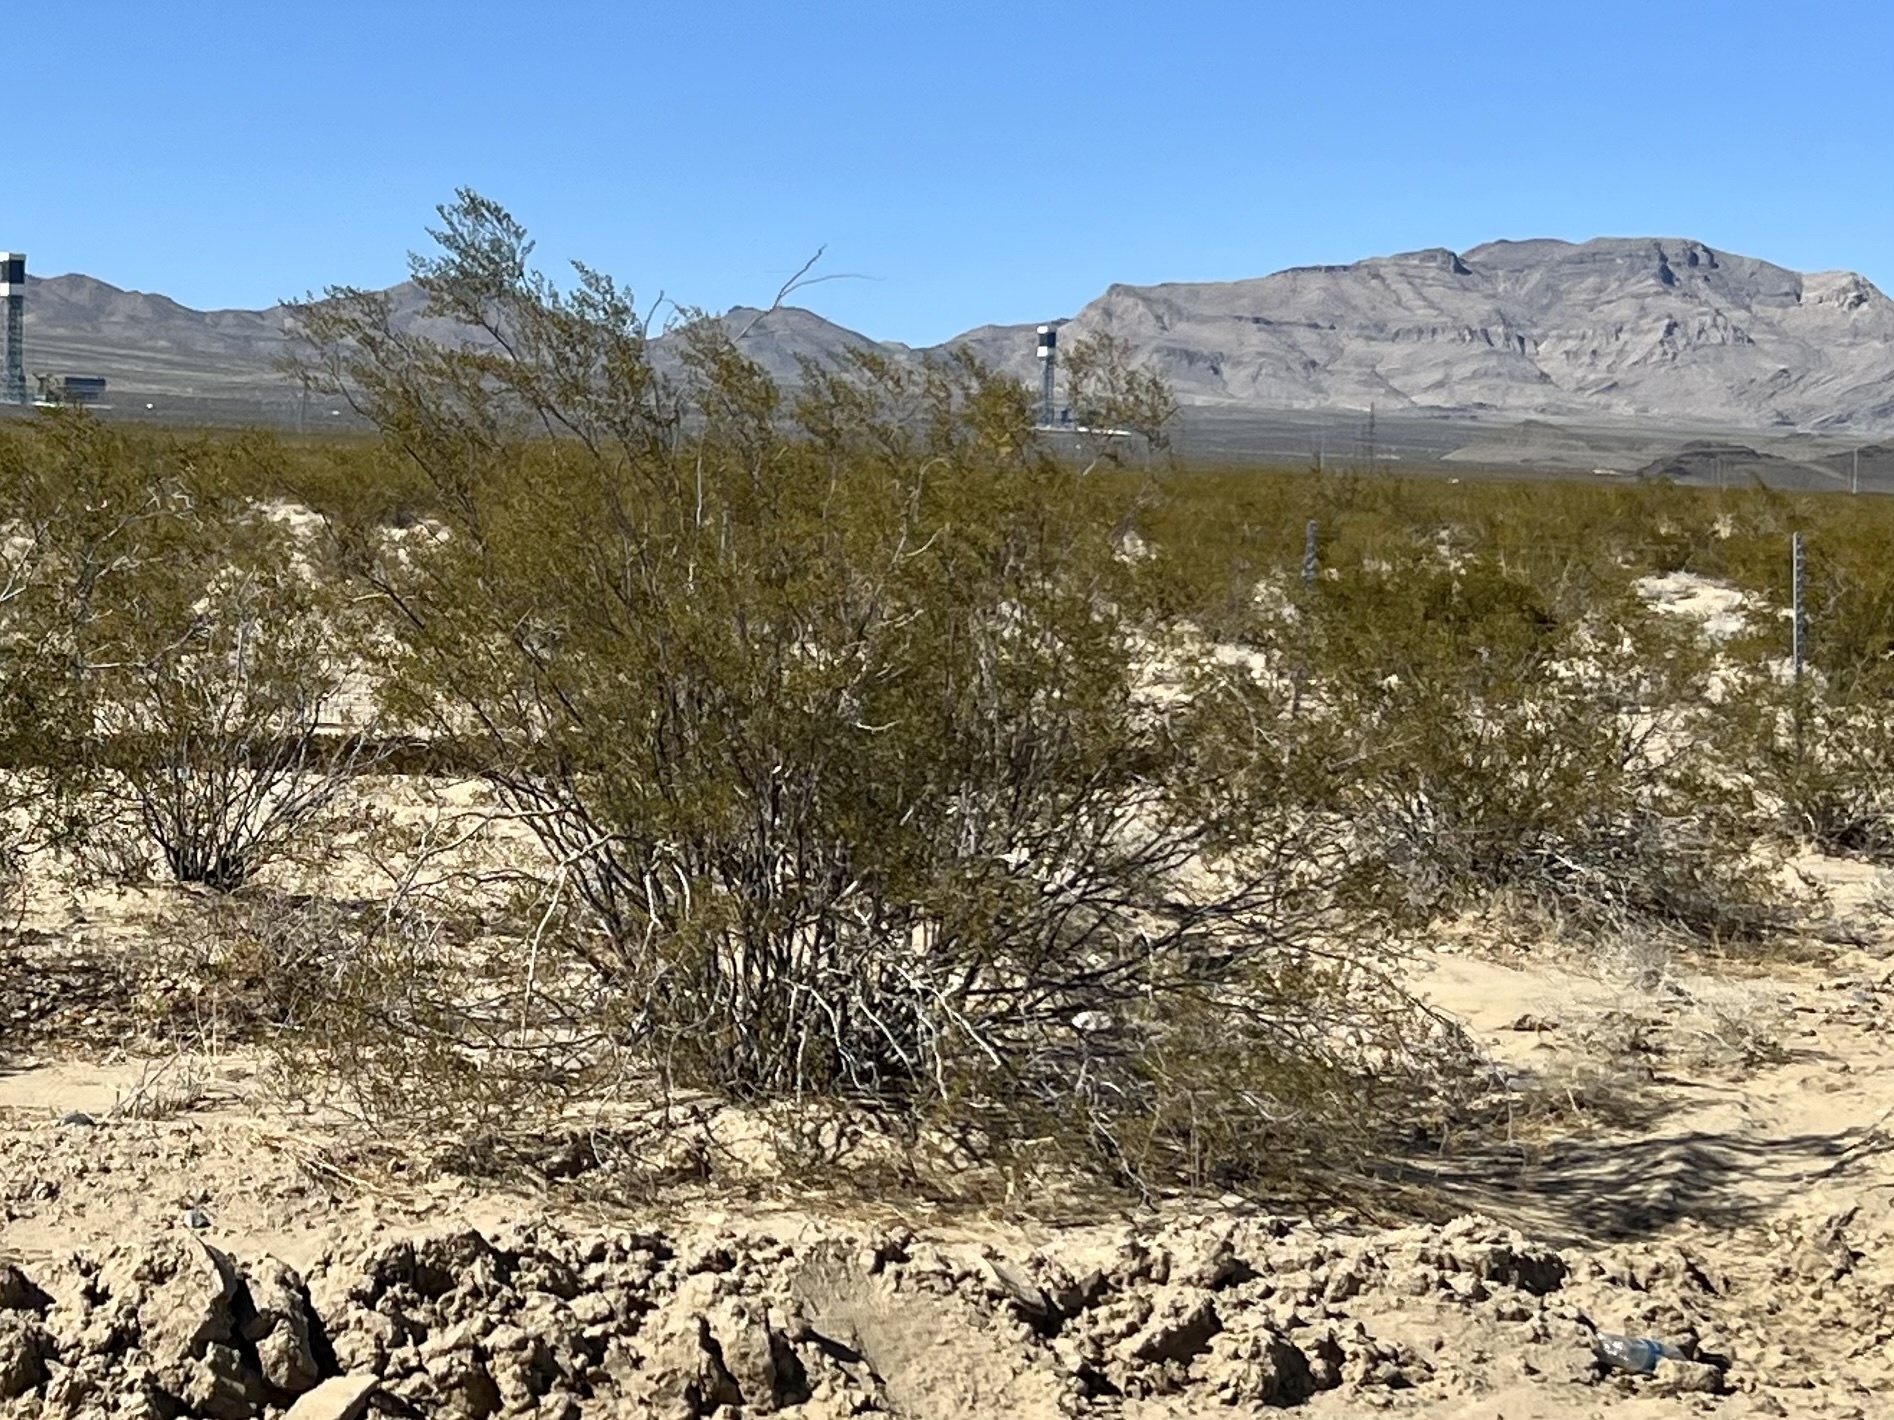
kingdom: Plantae
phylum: Tracheophyta
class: Magnoliopsida
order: Zygophyllales
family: Zygophyllaceae
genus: Larrea
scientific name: Larrea tridentata
